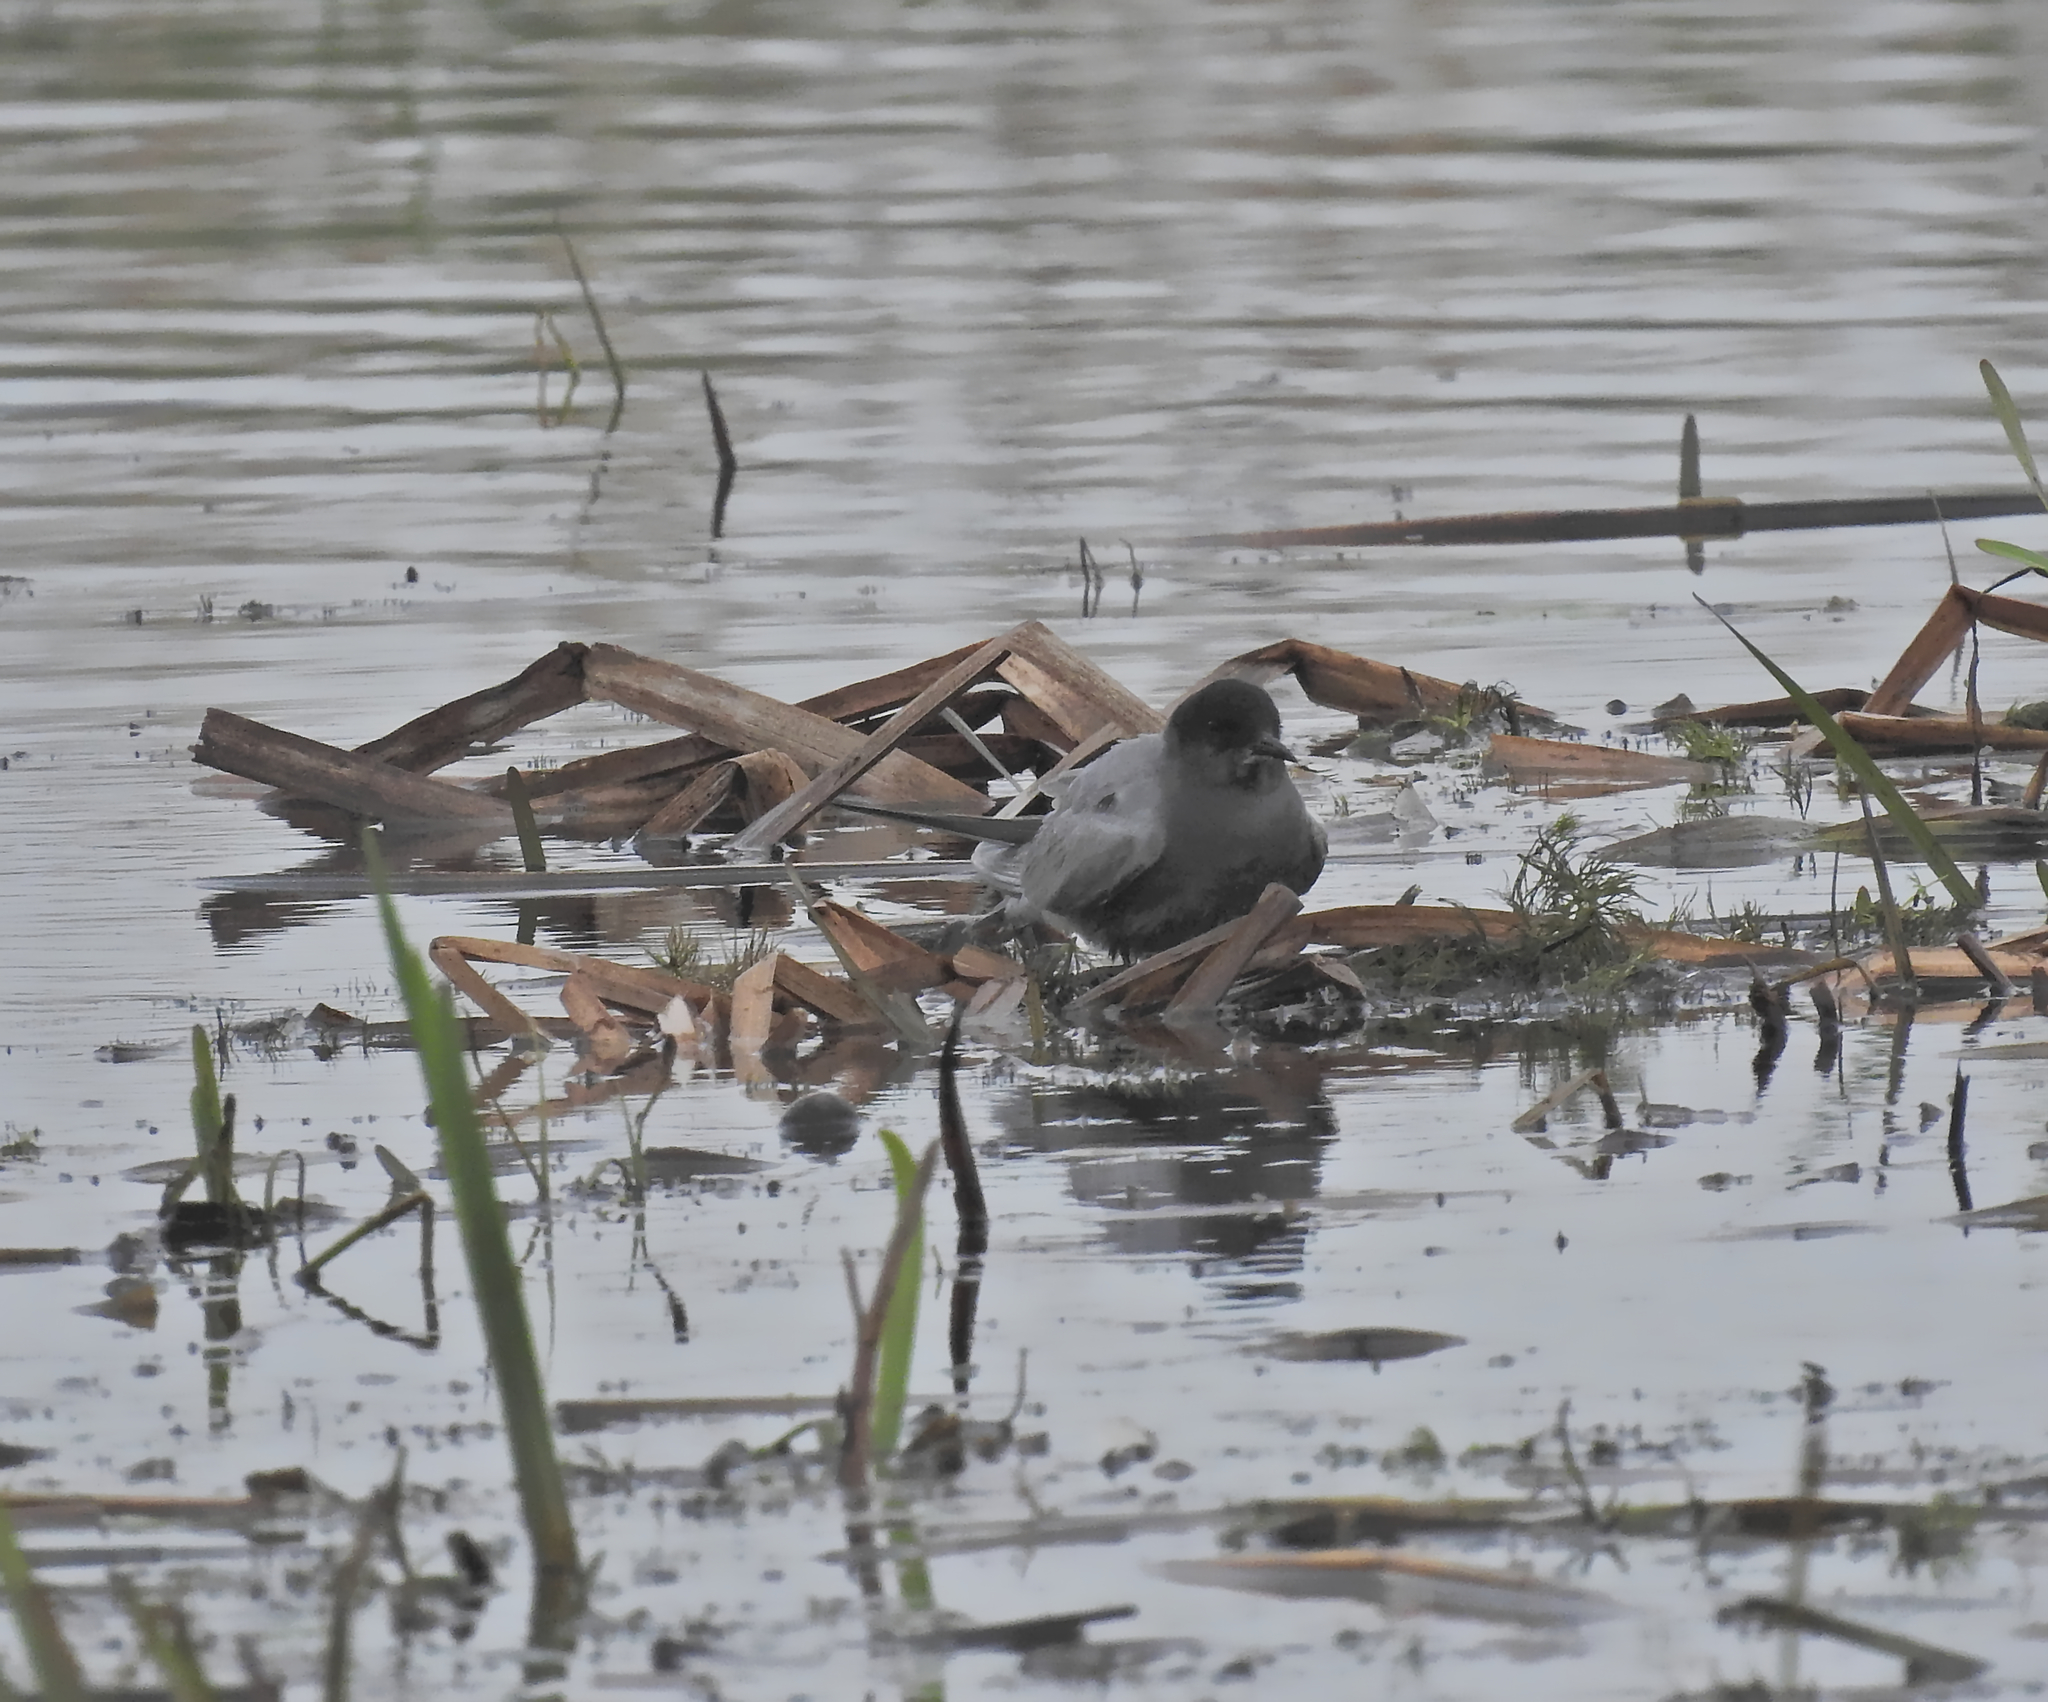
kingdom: Animalia
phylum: Chordata
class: Aves
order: Charadriiformes
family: Laridae
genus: Chlidonias
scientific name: Chlidonias niger
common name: Black tern
